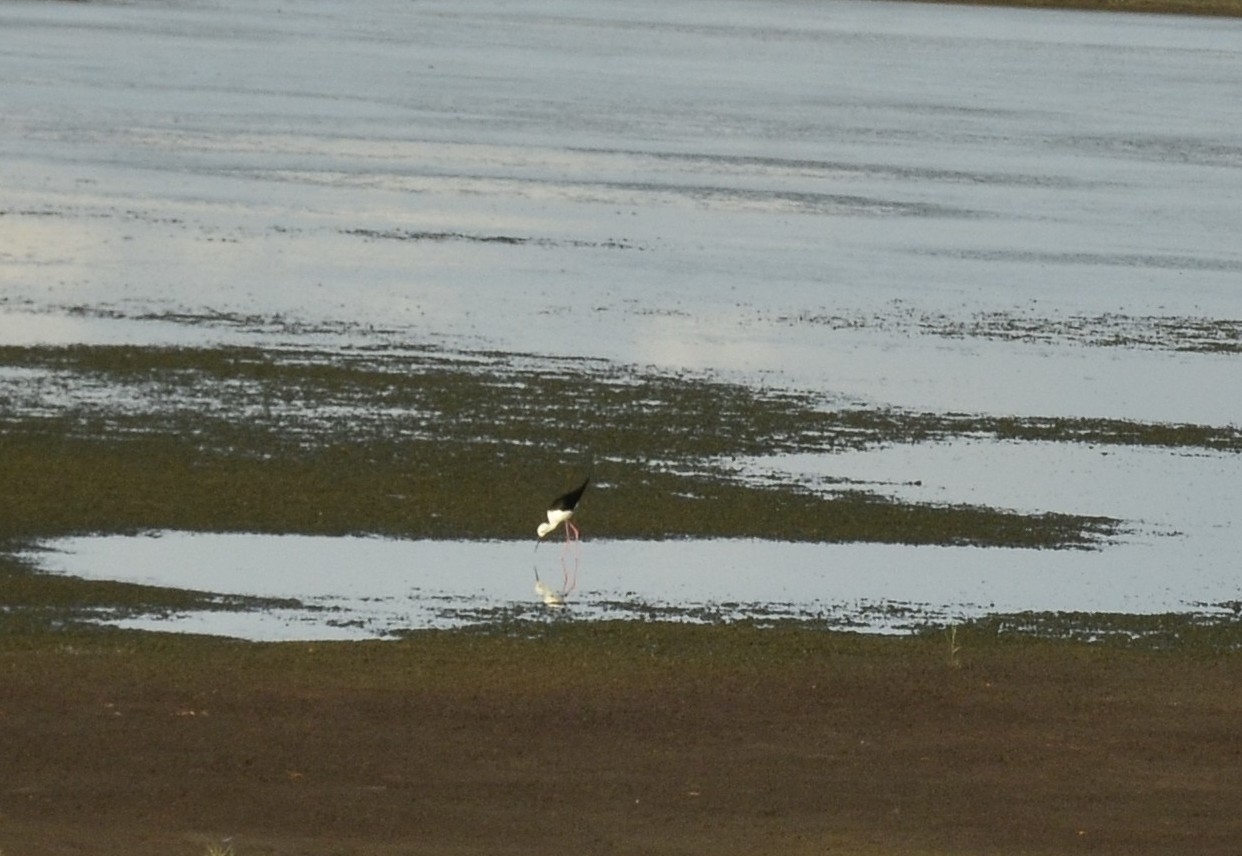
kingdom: Animalia
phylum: Chordata
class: Aves
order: Charadriiformes
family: Recurvirostridae
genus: Himantopus
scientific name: Himantopus himantopus
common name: Black-winged stilt
